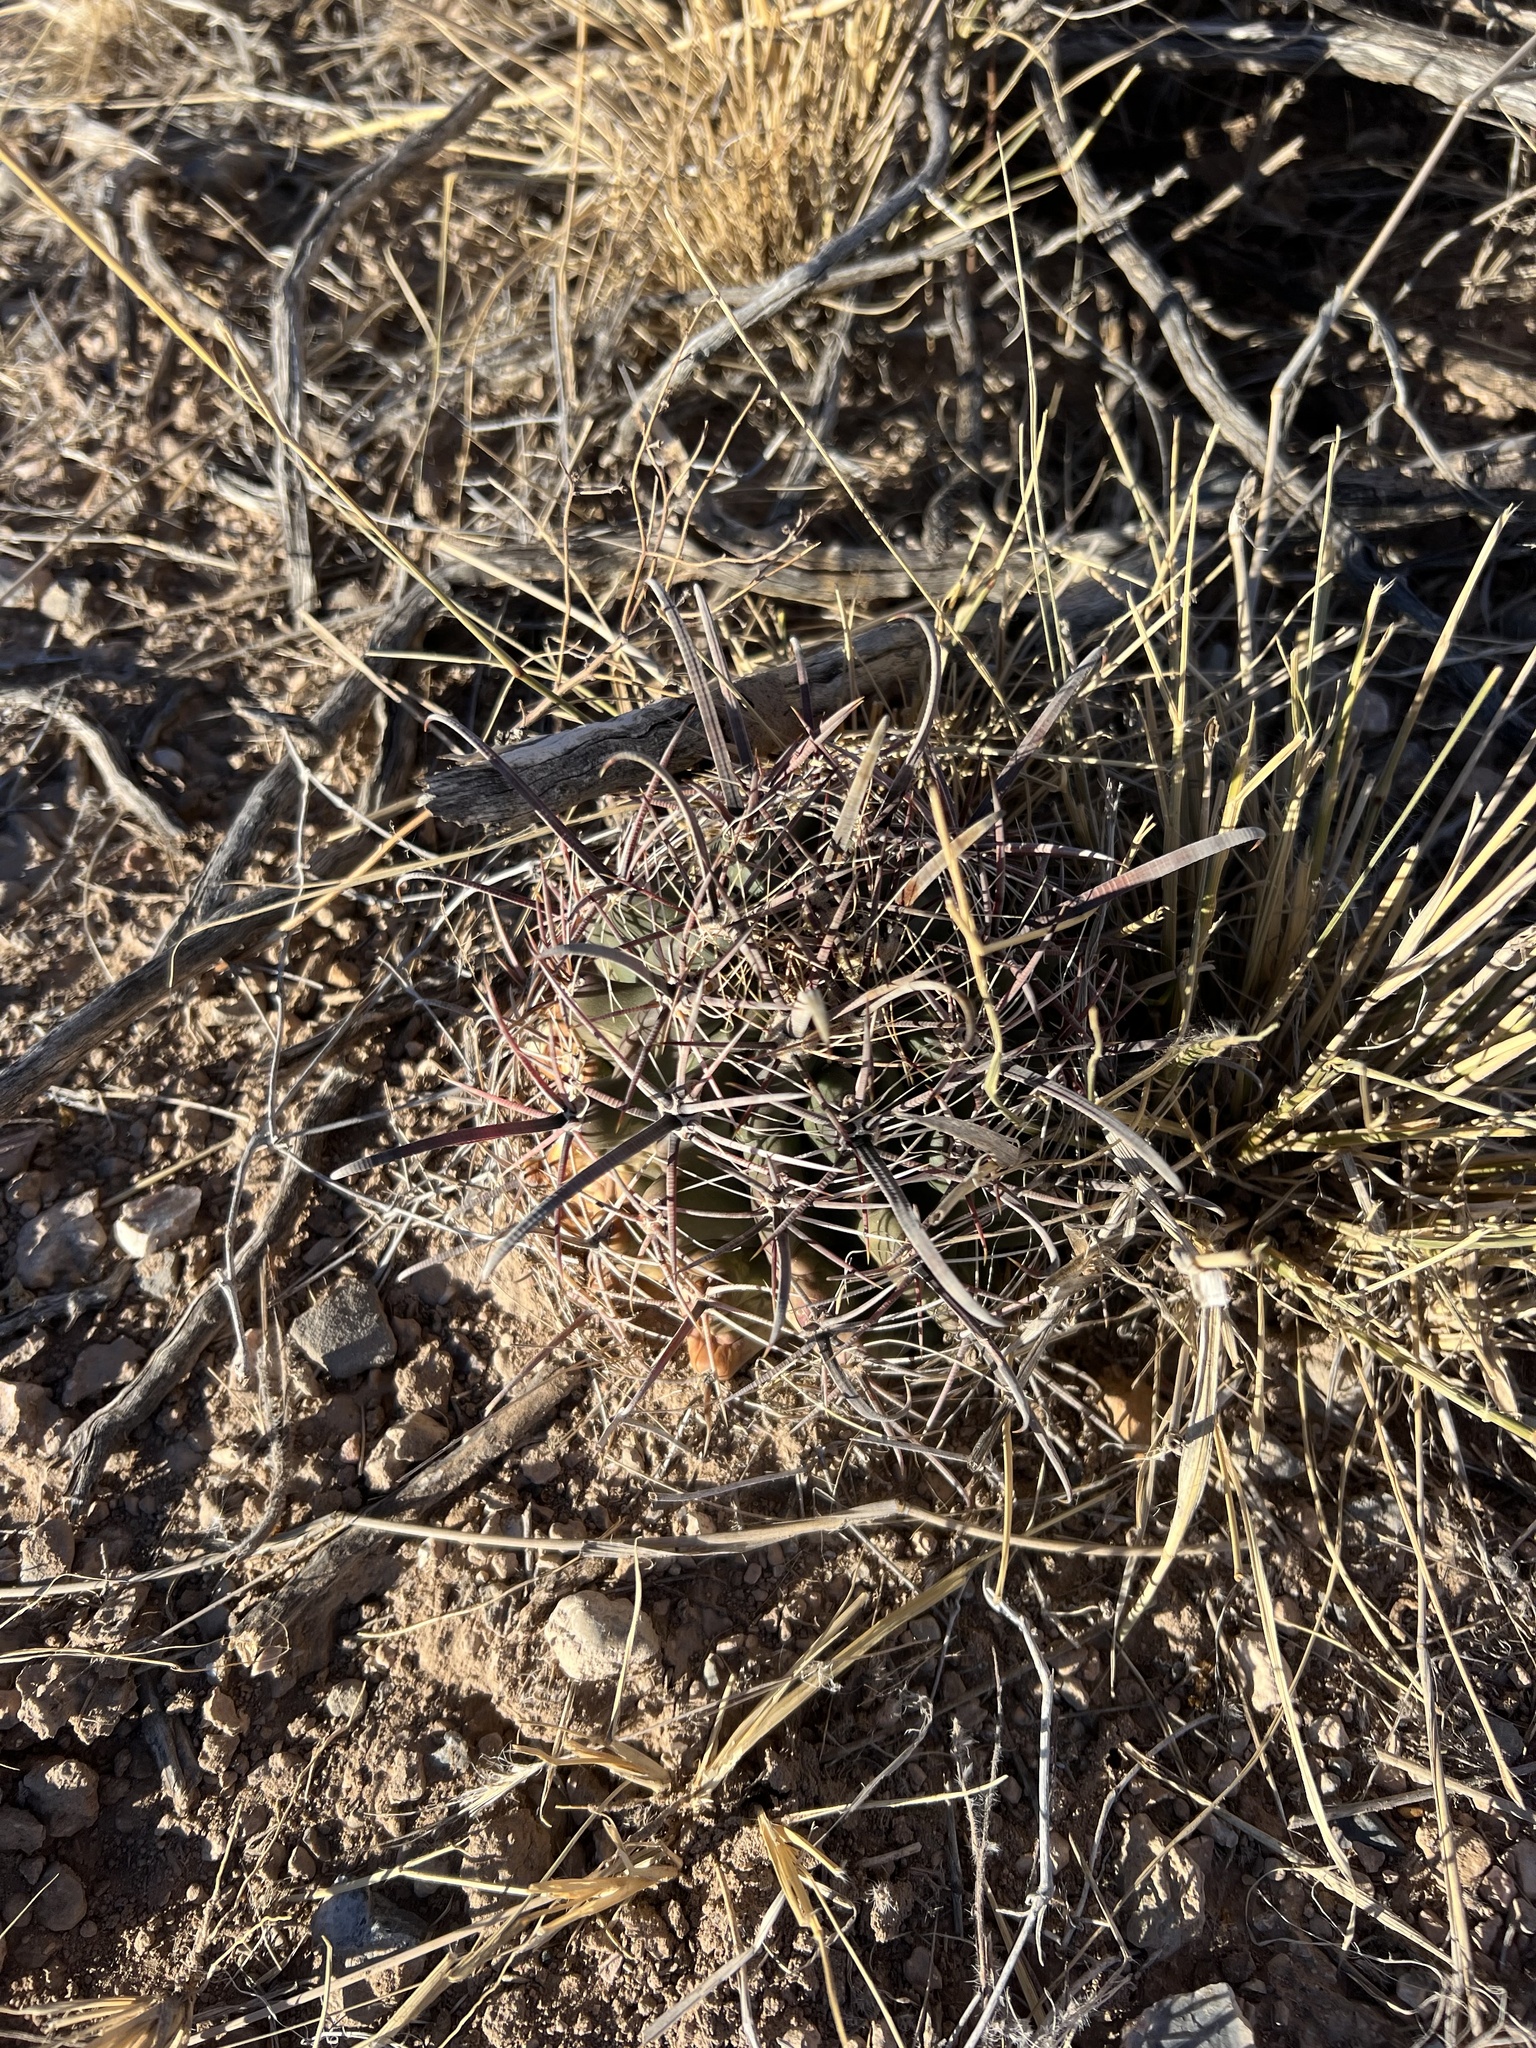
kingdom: Plantae
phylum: Tracheophyta
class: Magnoliopsida
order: Caryophyllales
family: Cactaceae
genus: Ferocactus
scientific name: Ferocactus wislizeni
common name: Candy barrel cactus
